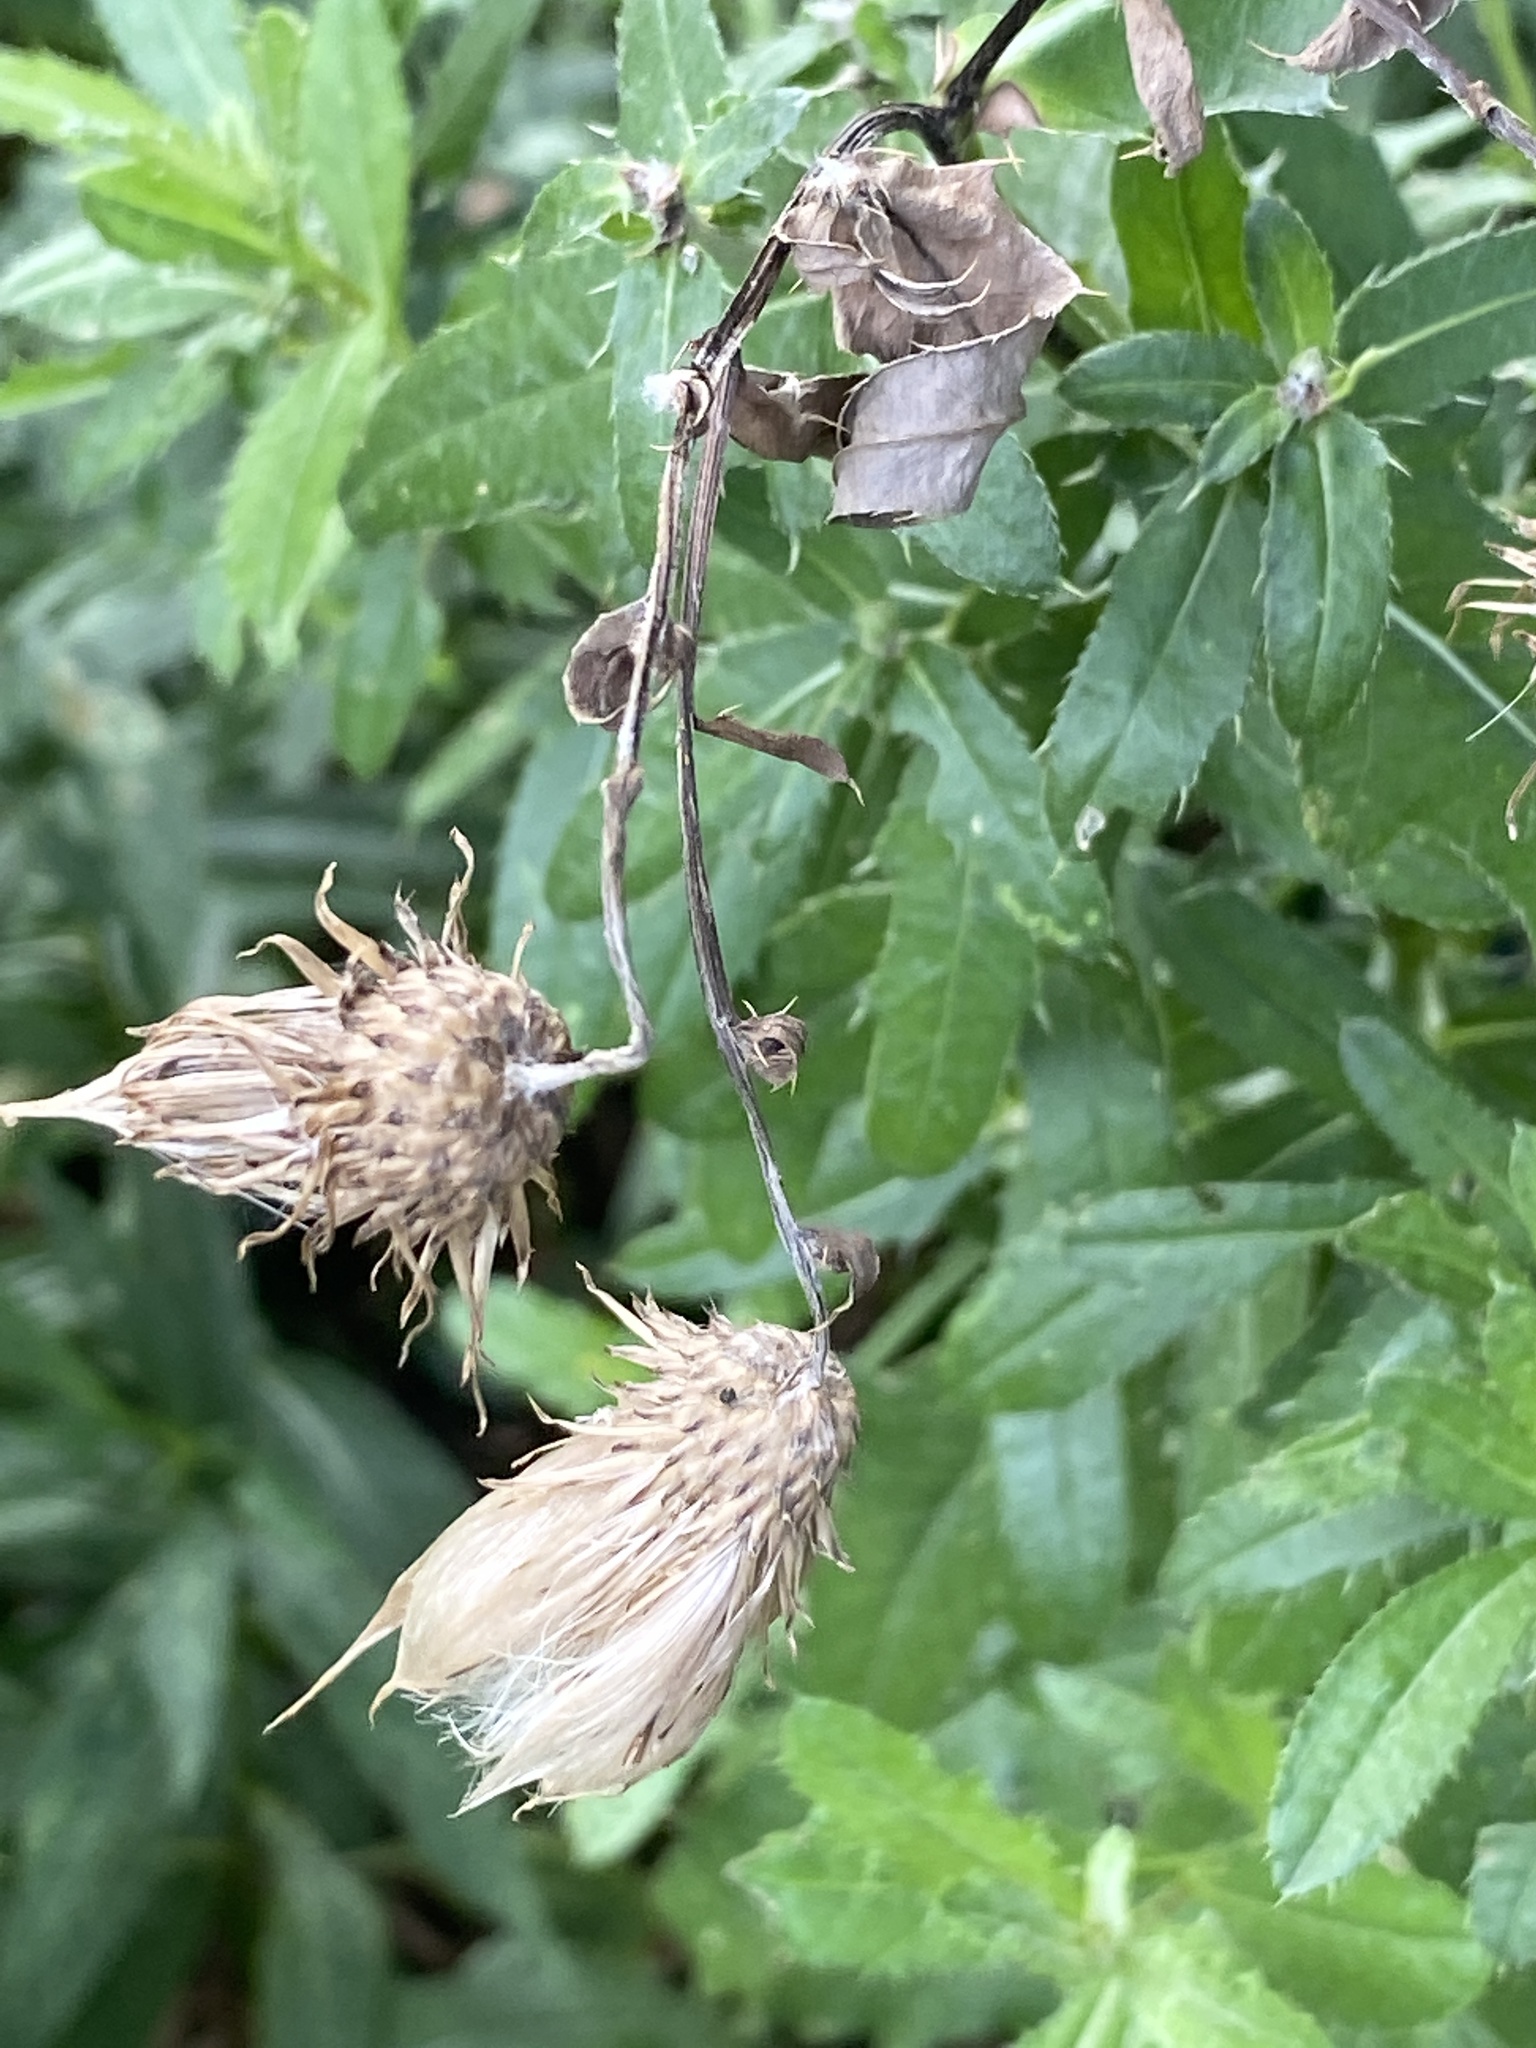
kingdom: Plantae
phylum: Tracheophyta
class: Magnoliopsida
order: Asterales
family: Asteraceae
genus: Cirsium
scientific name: Cirsium arvense
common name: Creeping thistle
